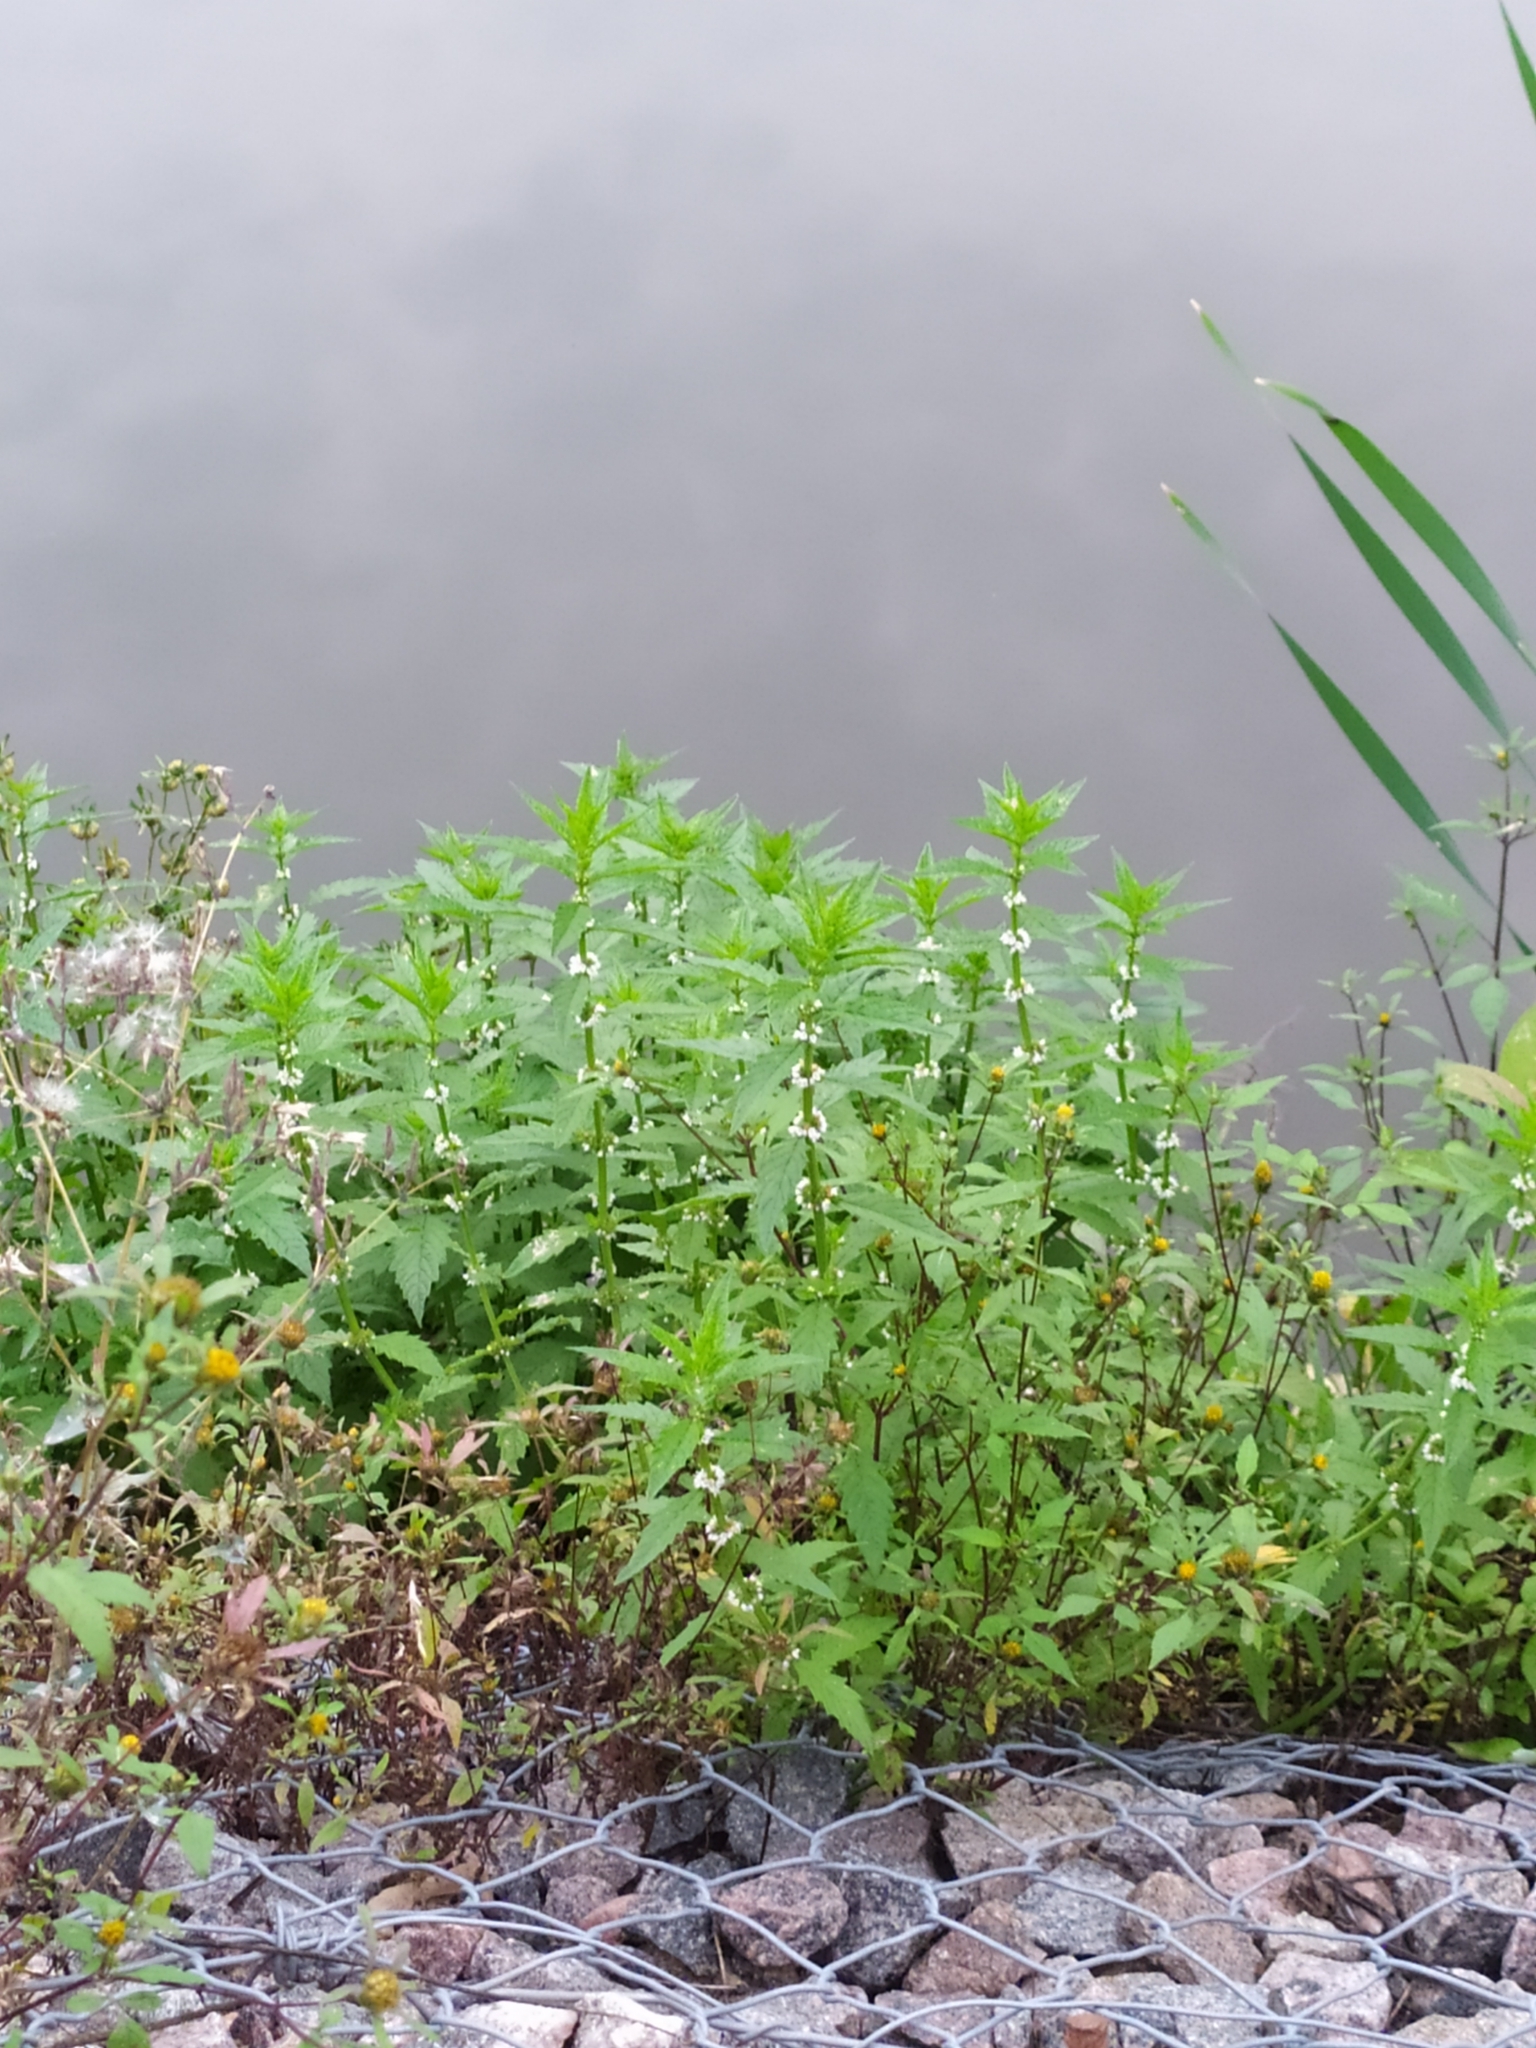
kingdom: Plantae
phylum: Tracheophyta
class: Magnoliopsida
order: Lamiales
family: Lamiaceae
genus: Lycopus
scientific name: Lycopus europaeus
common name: European bugleweed
